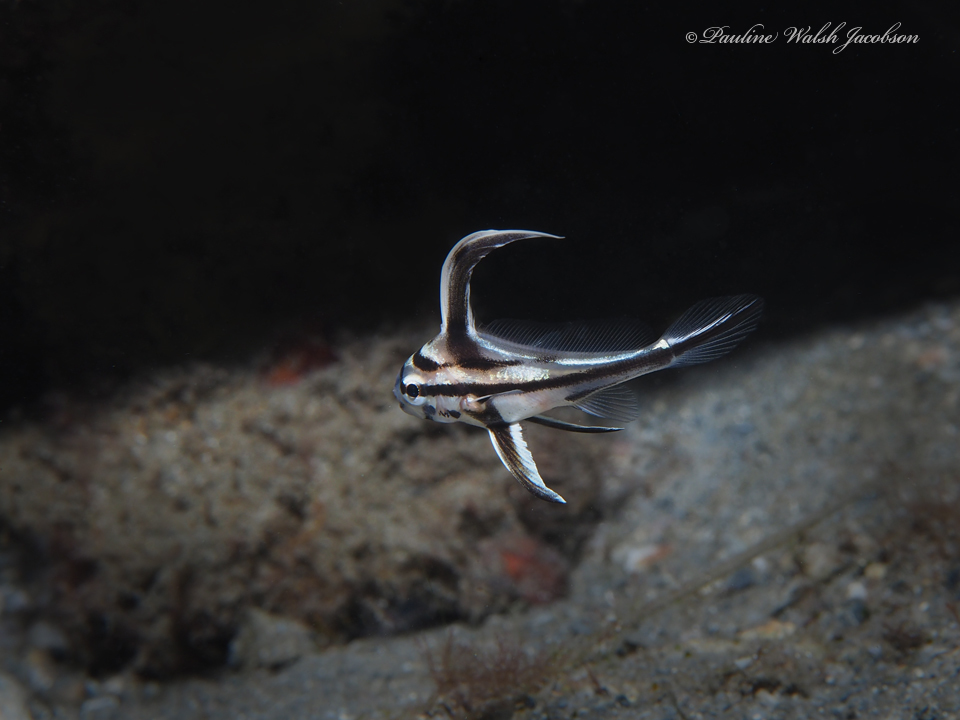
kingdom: Animalia
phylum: Chordata
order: Perciformes
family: Sciaenidae
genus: Pareques
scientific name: Pareques acuminatus
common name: High-hat
